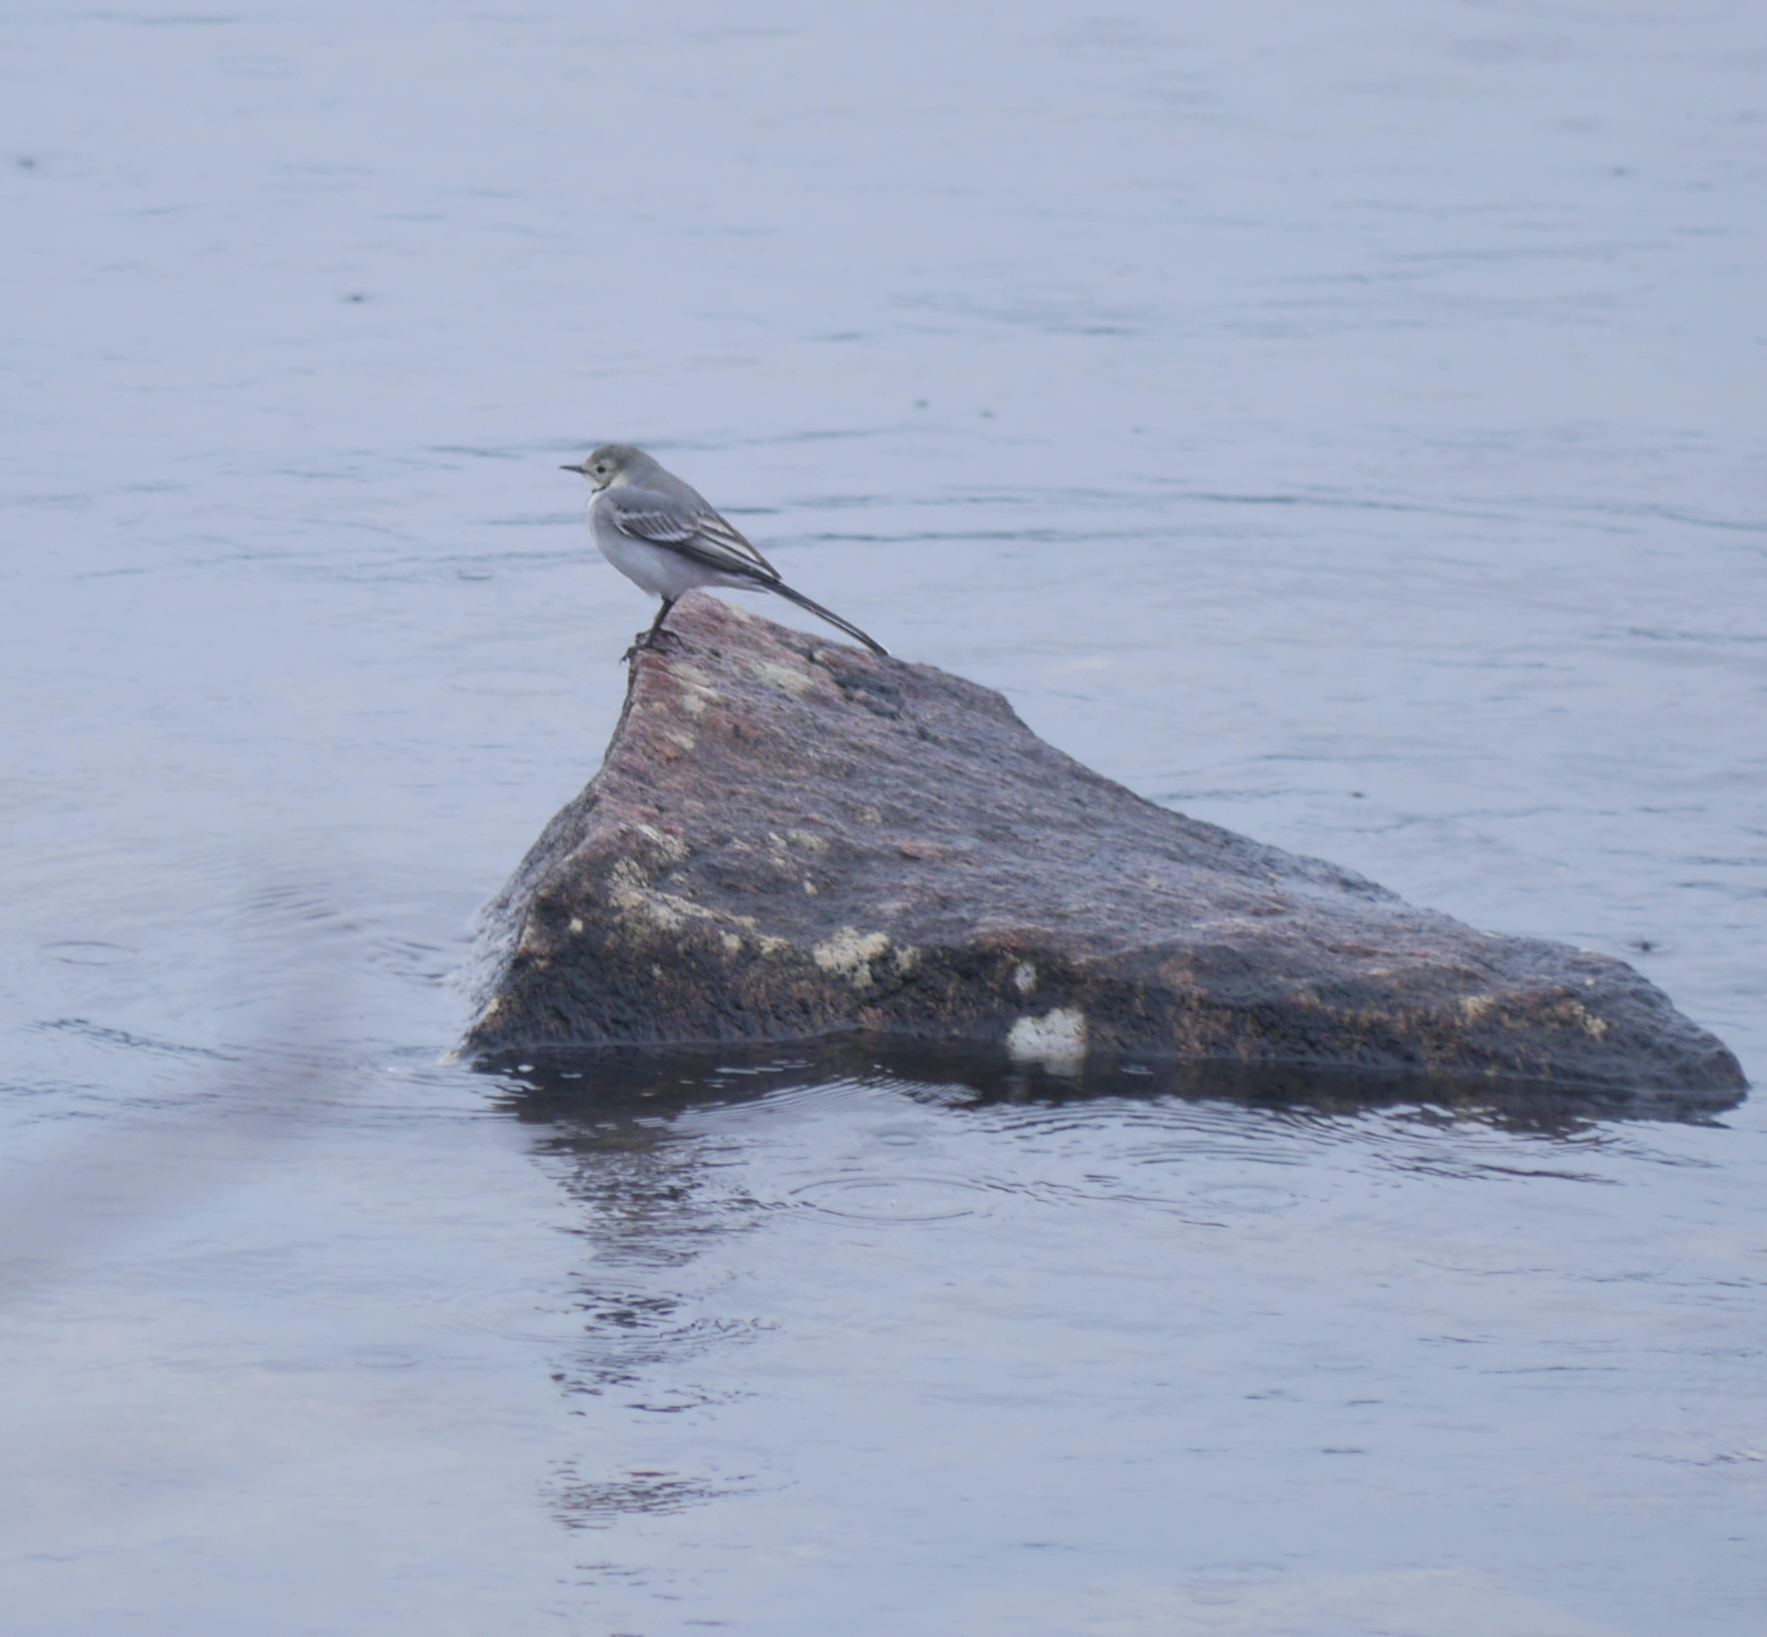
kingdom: Animalia
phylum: Chordata
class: Aves
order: Passeriformes
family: Motacillidae
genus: Motacilla
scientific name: Motacilla alba
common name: White wagtail
